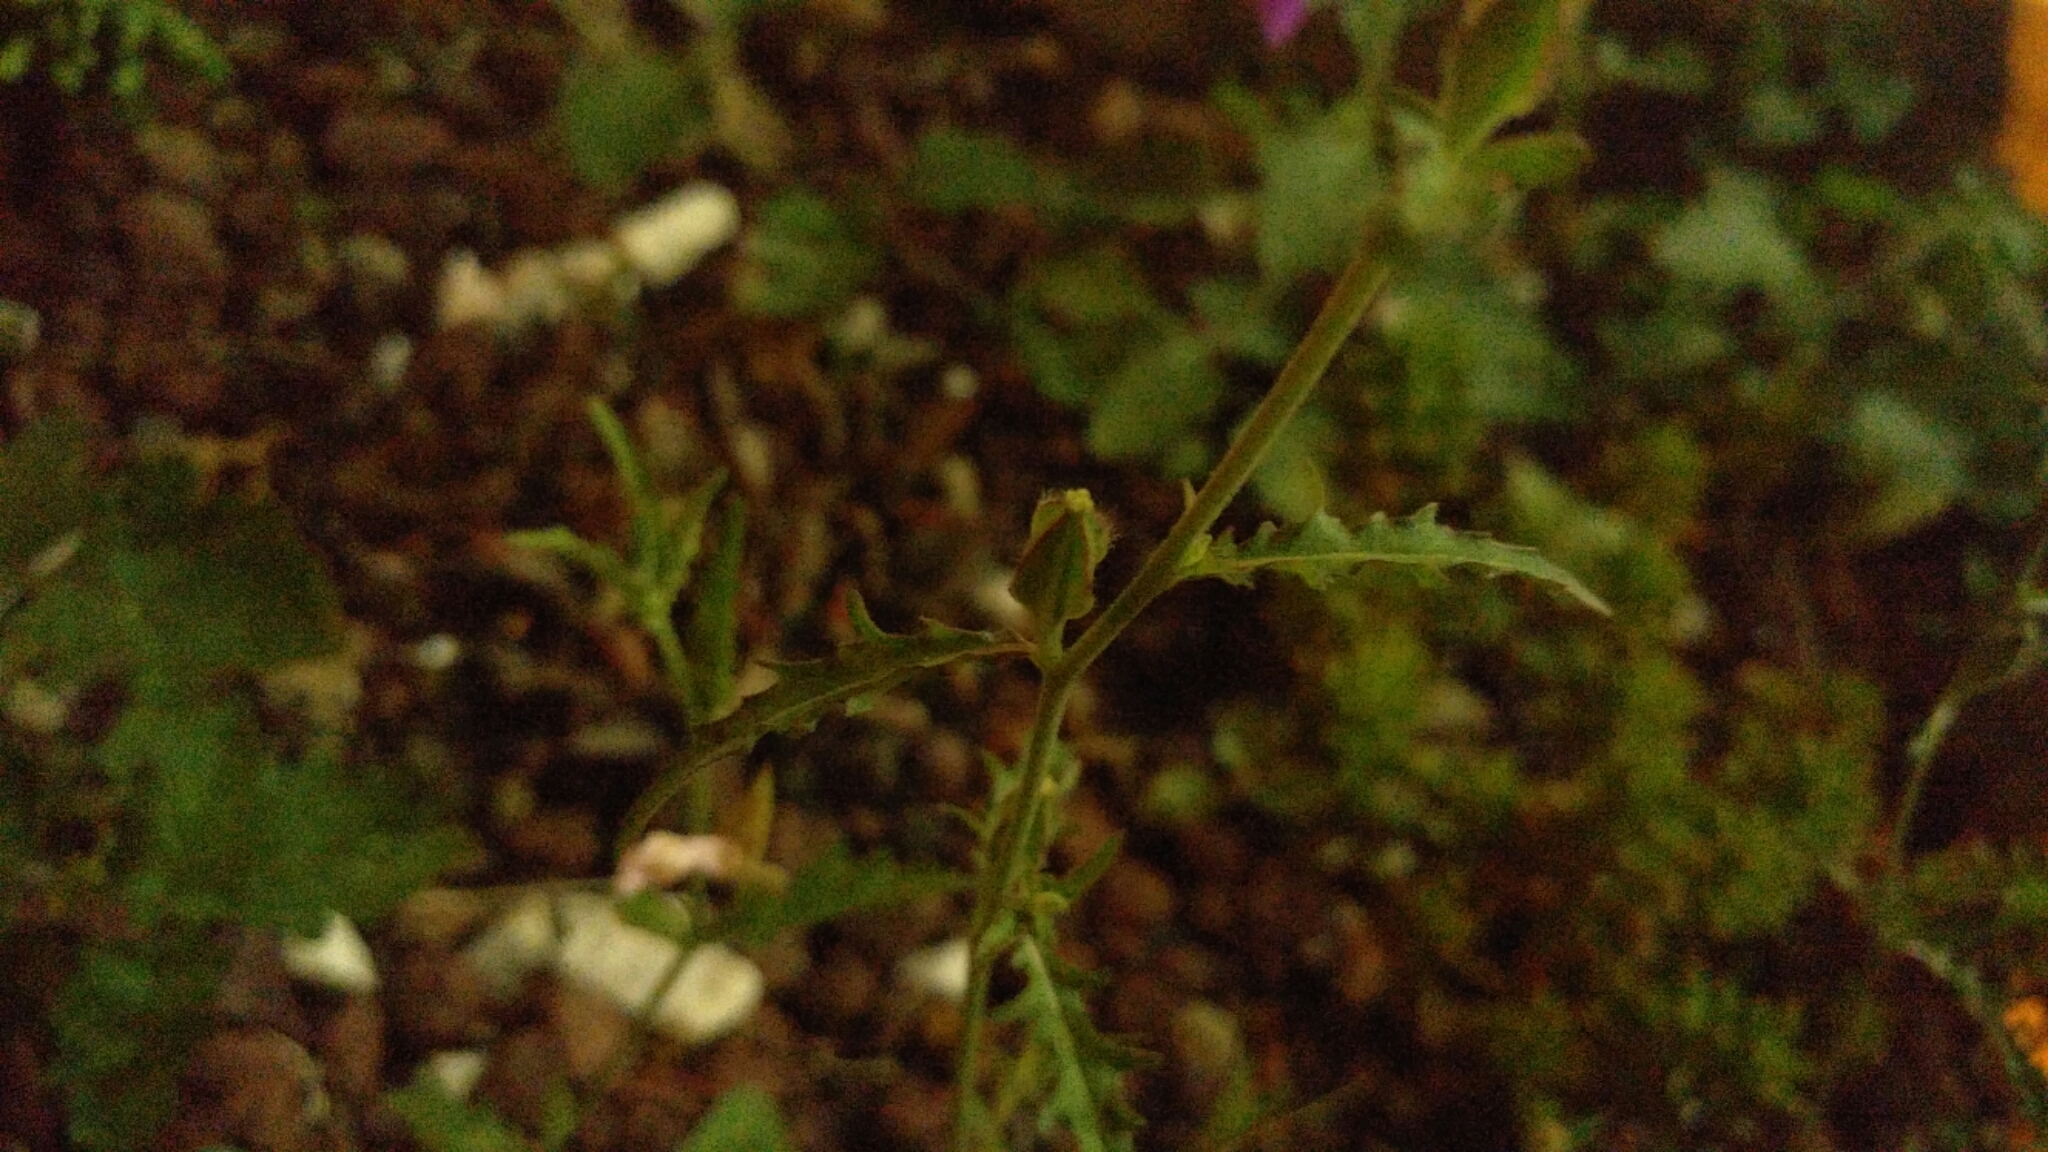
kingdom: Plantae
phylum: Tracheophyta
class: Magnoliopsida
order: Myrtales
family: Onagraceae
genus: Oenothera
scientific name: Oenothera tetraptera
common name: Four-wing evening-primrose
